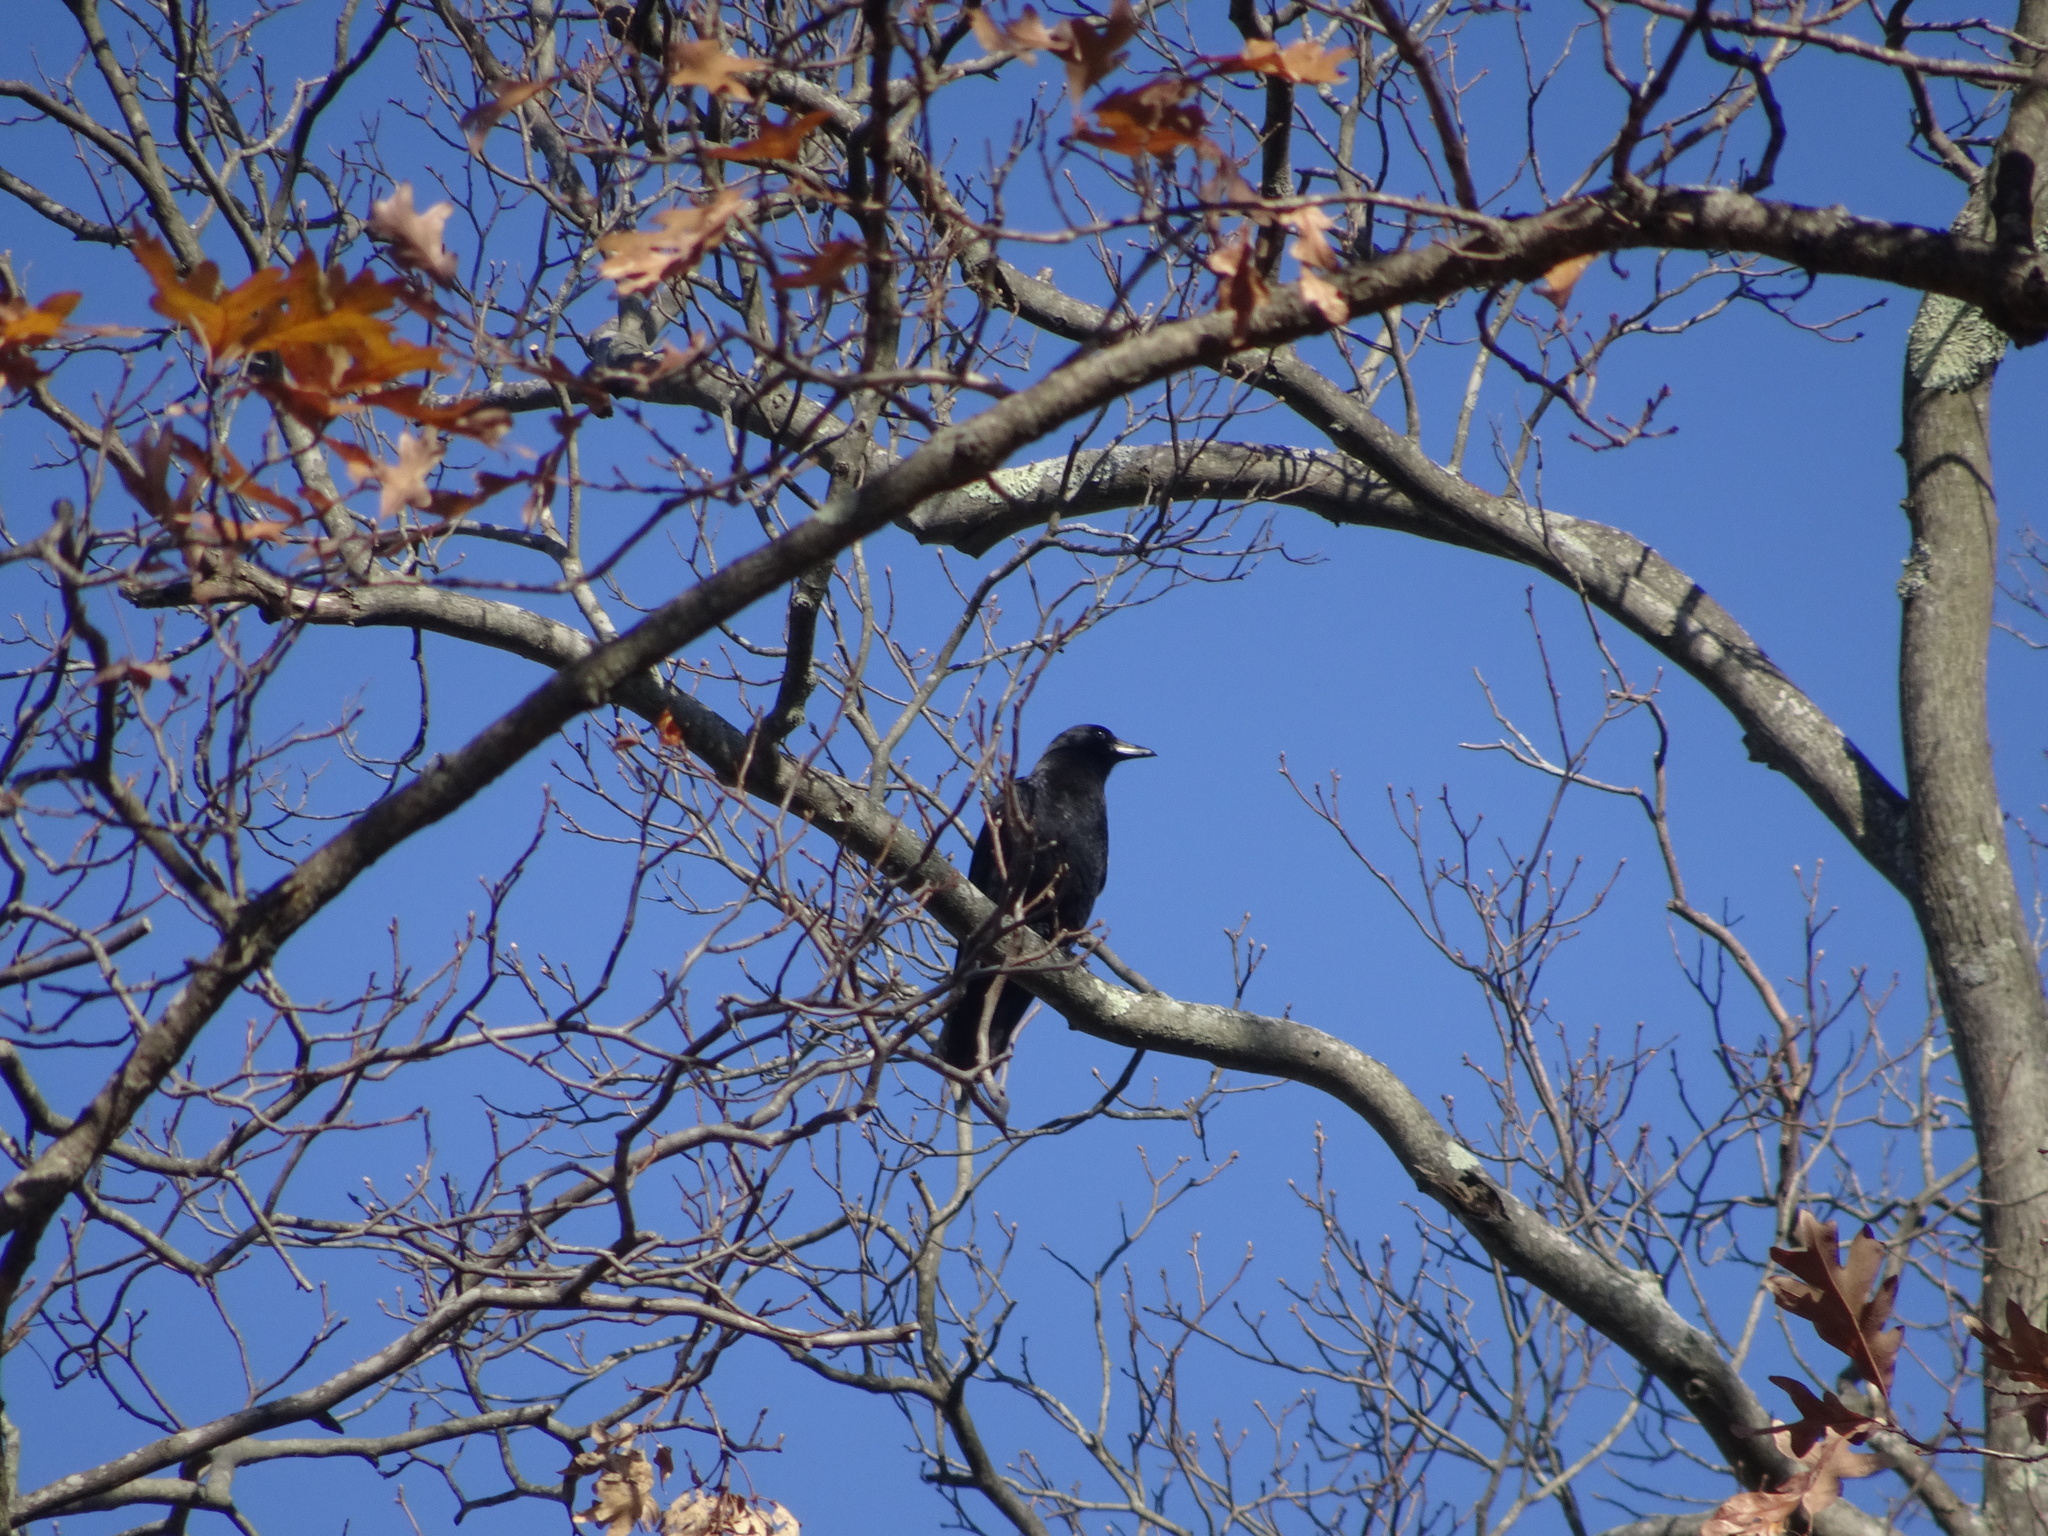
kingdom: Animalia
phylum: Chordata
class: Aves
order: Passeriformes
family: Corvidae
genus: Corvus
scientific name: Corvus brachyrhynchos
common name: American crow
